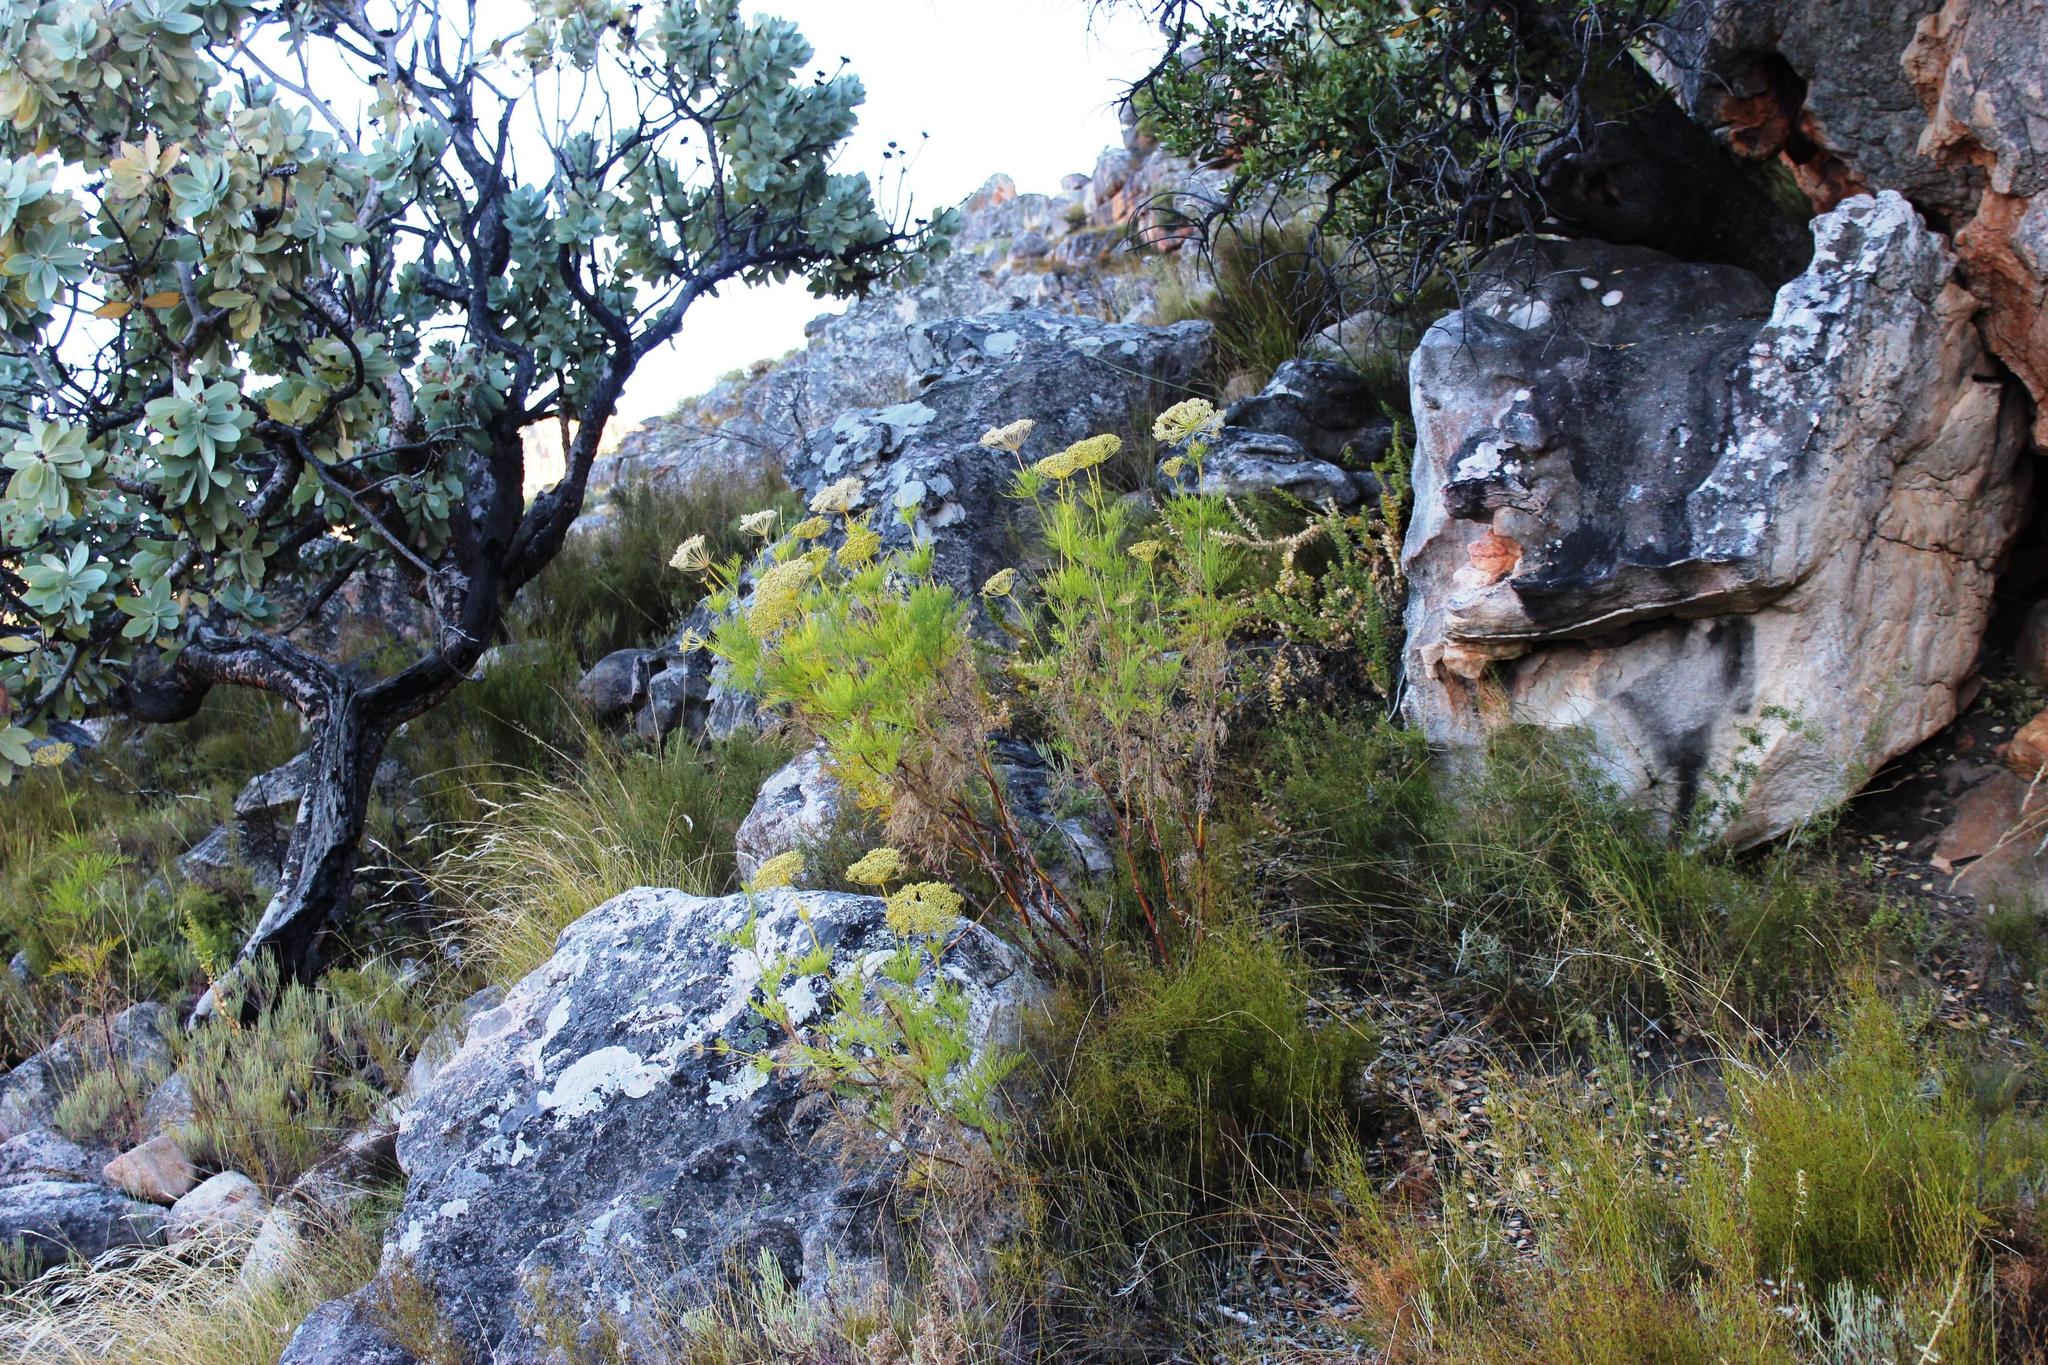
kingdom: Plantae
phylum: Tracheophyta
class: Magnoliopsida
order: Apiales
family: Apiaceae
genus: Notobubon
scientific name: Notobubon tenuifolium
